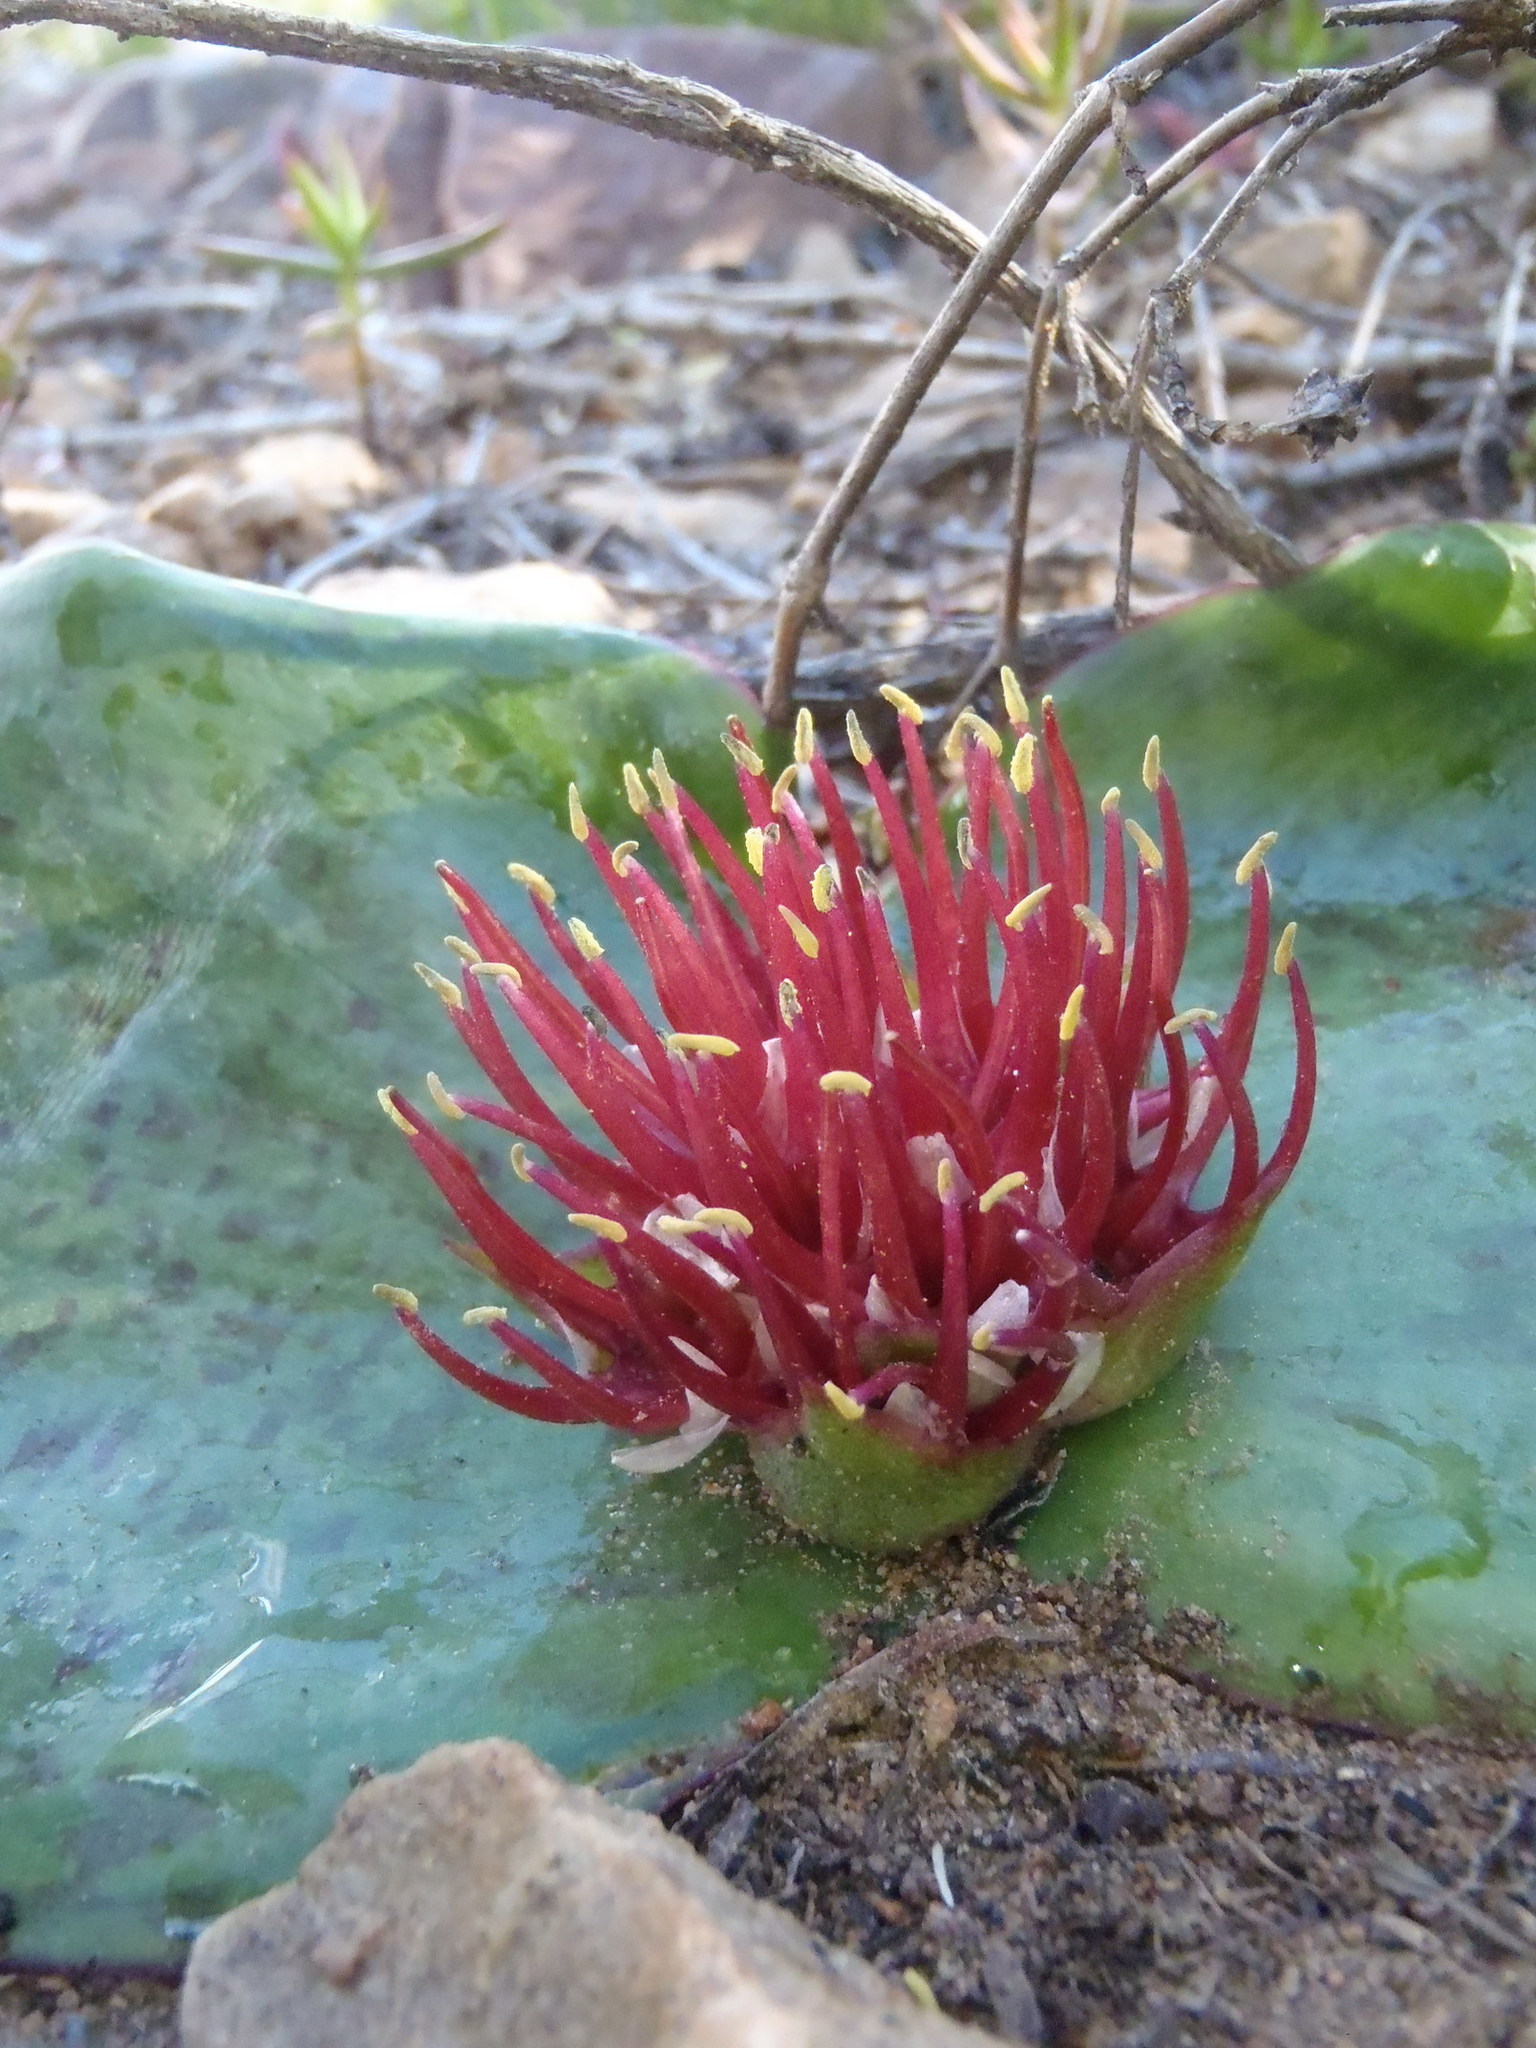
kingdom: Plantae
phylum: Tracheophyta
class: Liliopsida
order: Asparagales
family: Asparagaceae
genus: Massonia
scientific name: Massonia depressa
